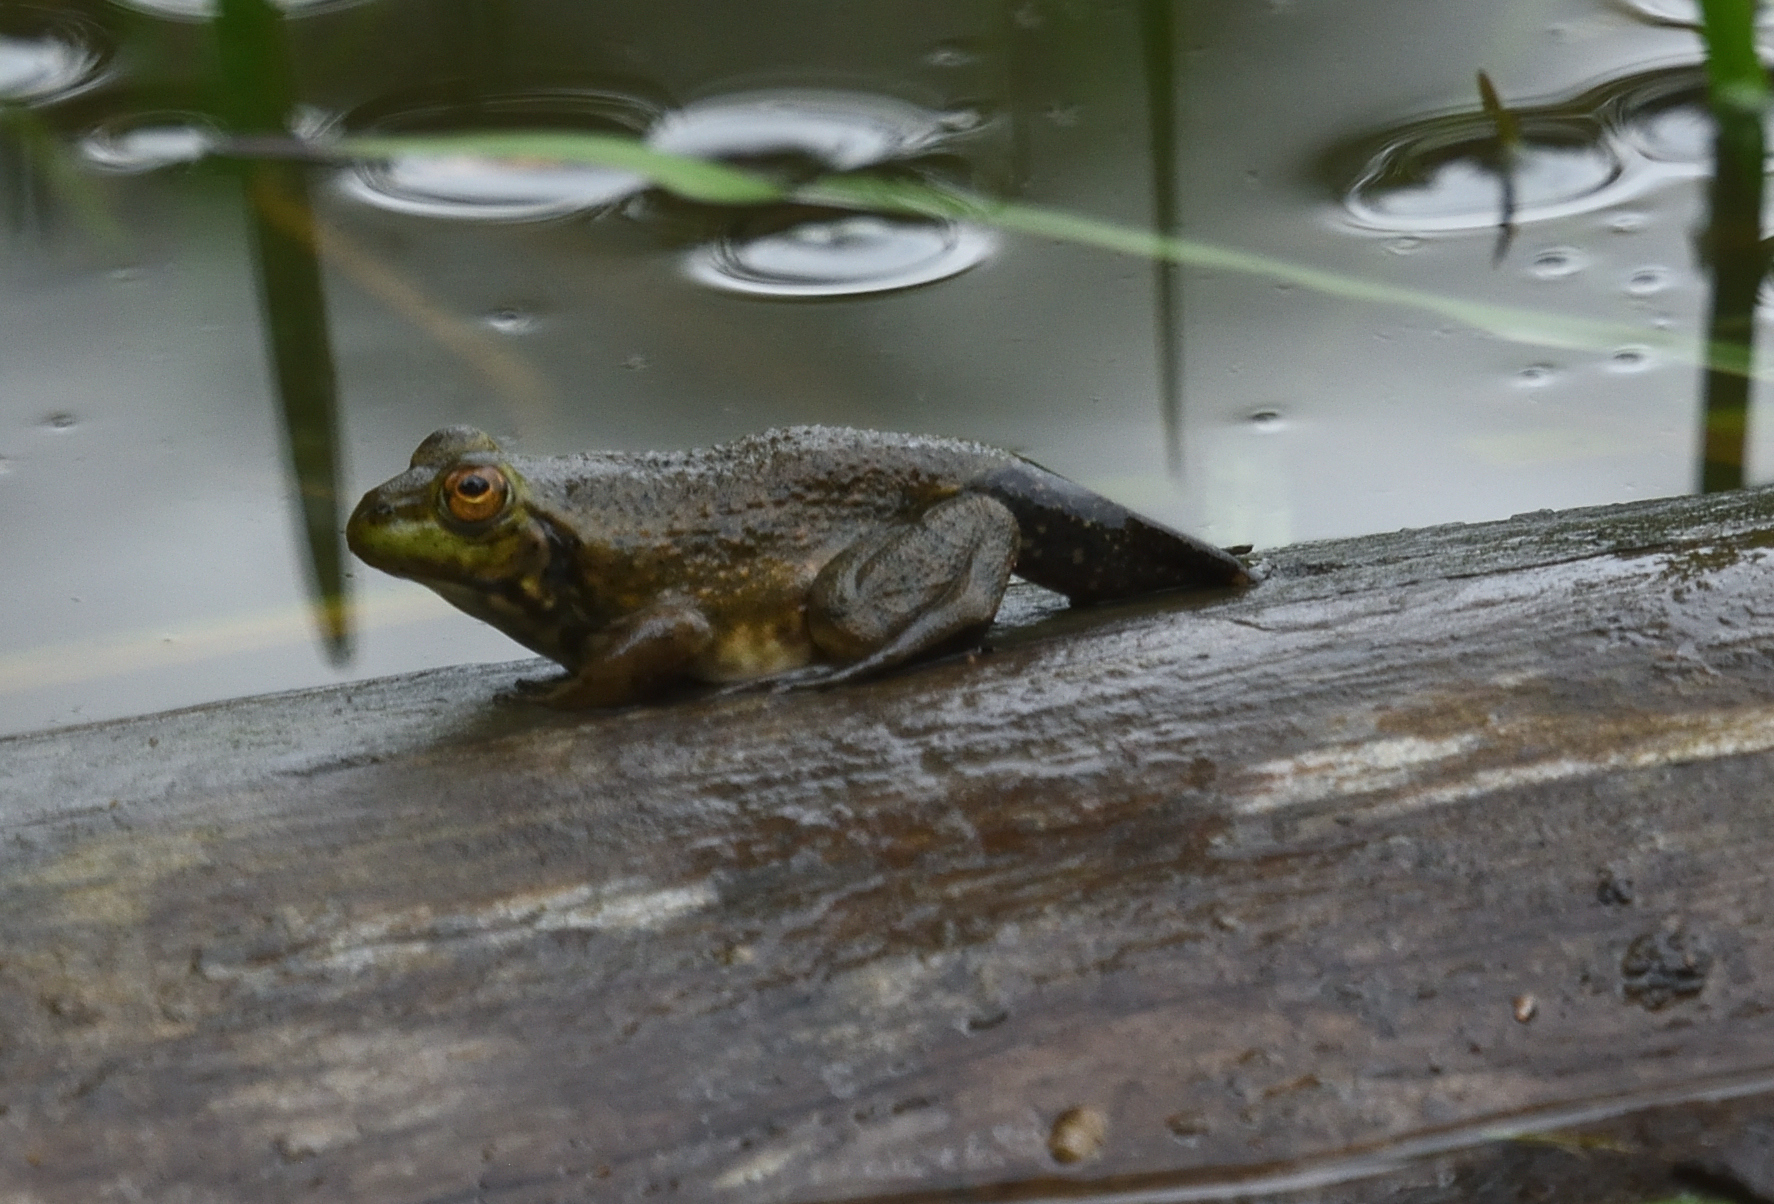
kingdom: Animalia
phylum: Chordata
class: Amphibia
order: Anura
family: Ranidae
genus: Lithobates
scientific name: Lithobates catesbeianus
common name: American bullfrog
